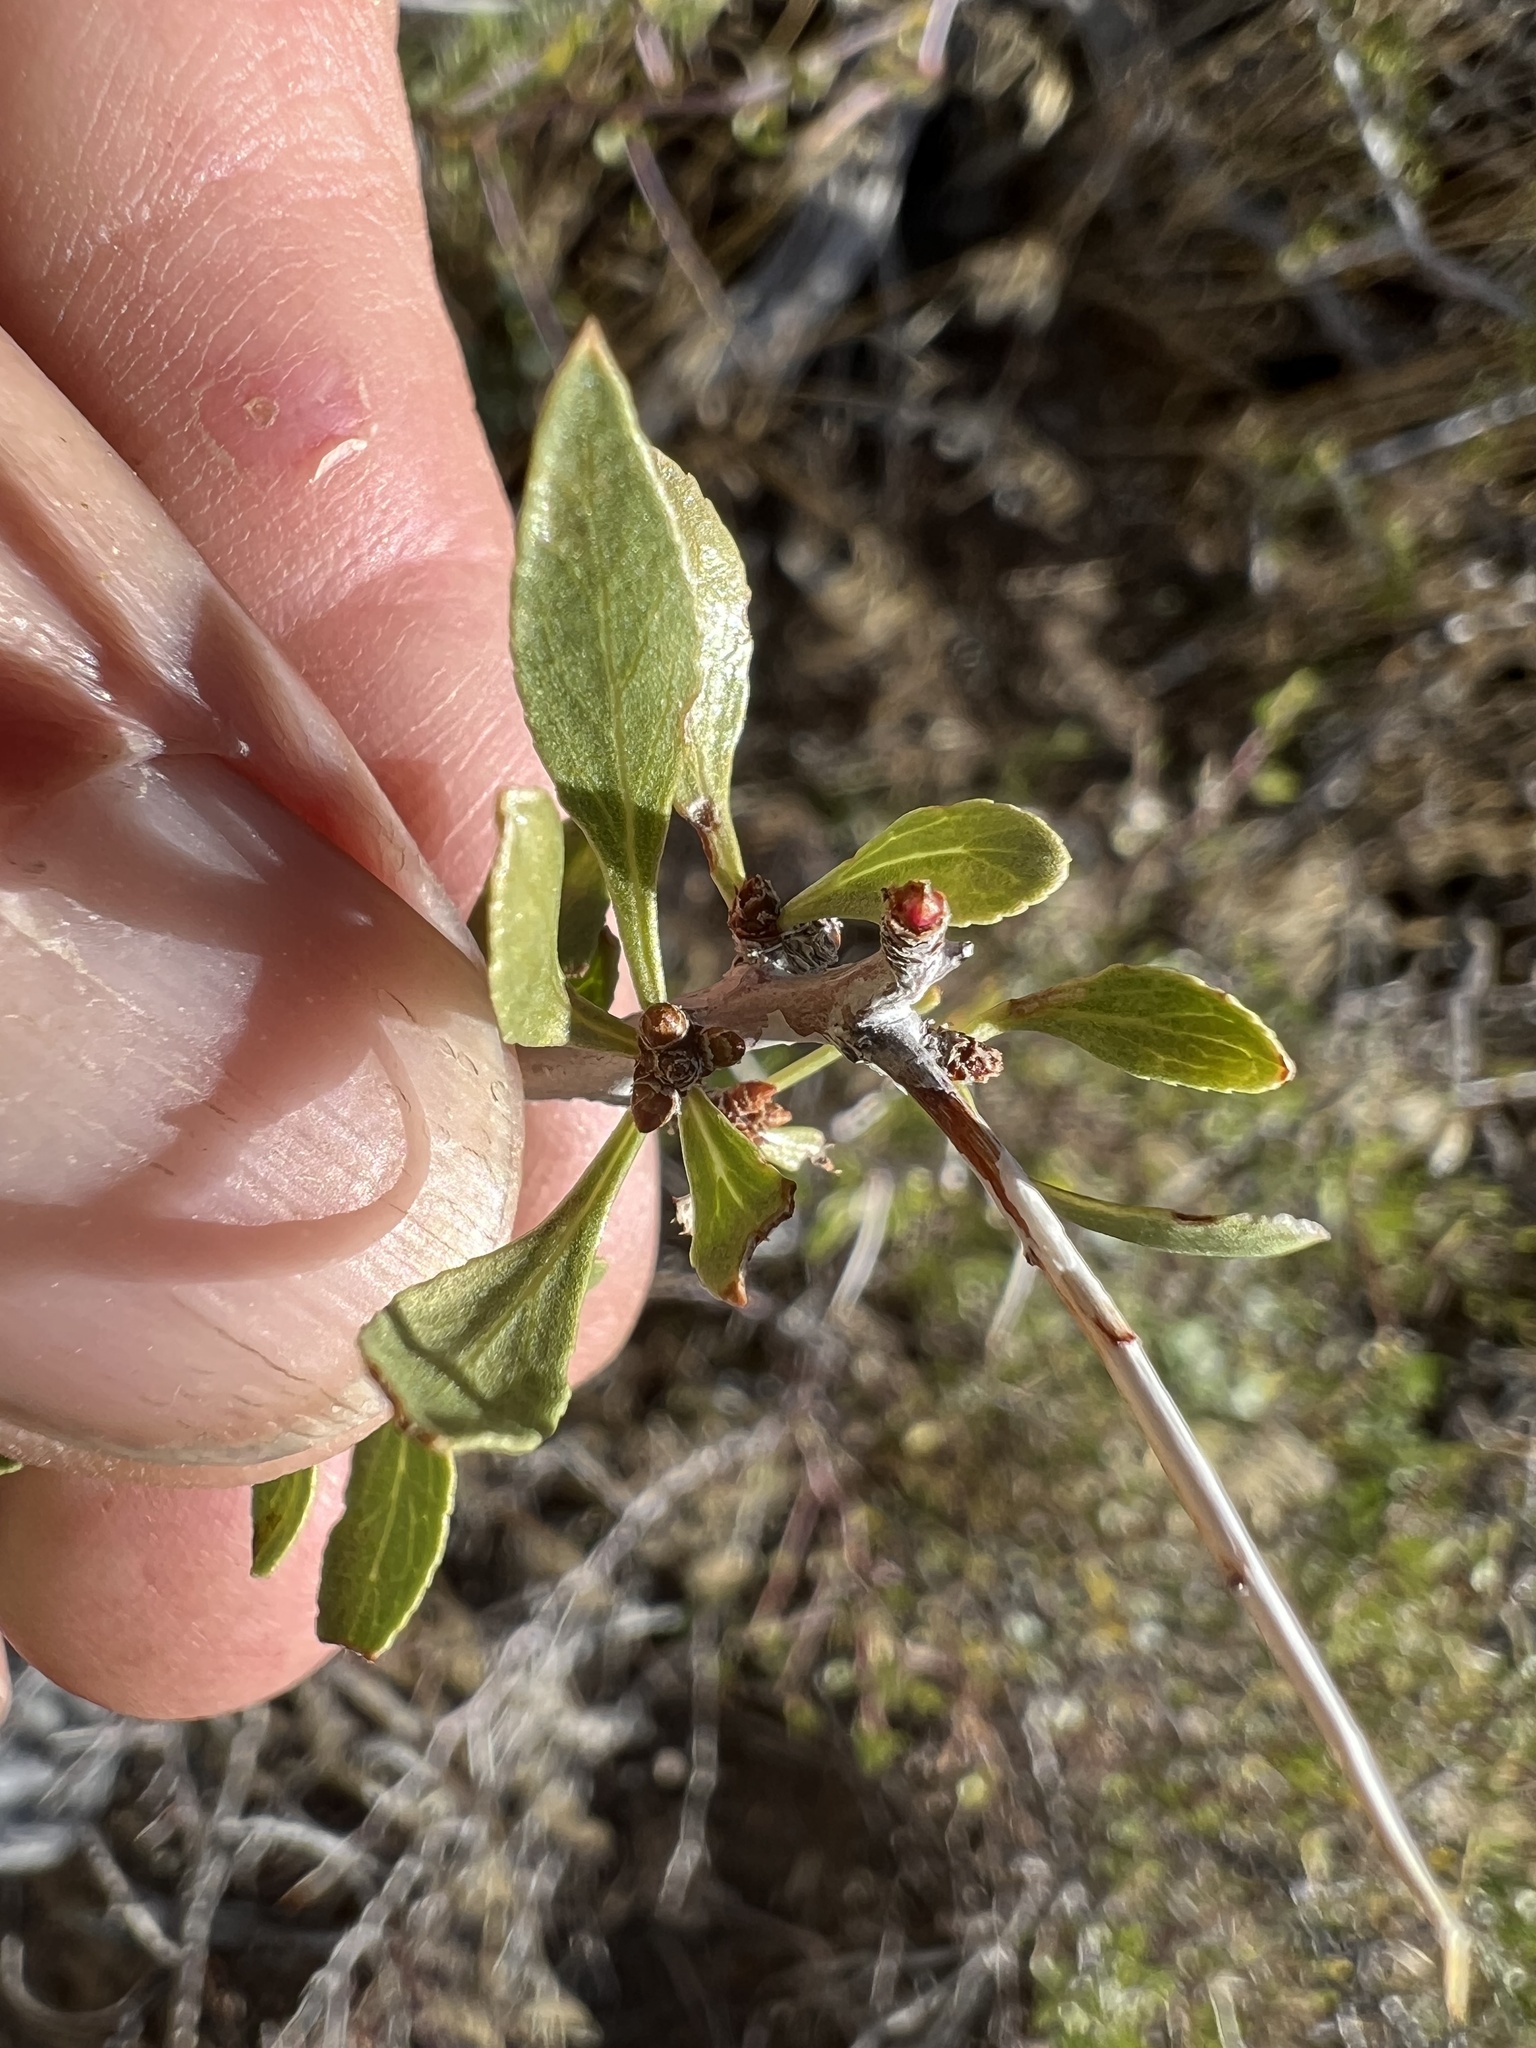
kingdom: Plantae
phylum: Tracheophyta
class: Magnoliopsida
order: Rosales
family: Rosaceae
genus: Prunus
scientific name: Prunus andersonii
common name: Desert peach
